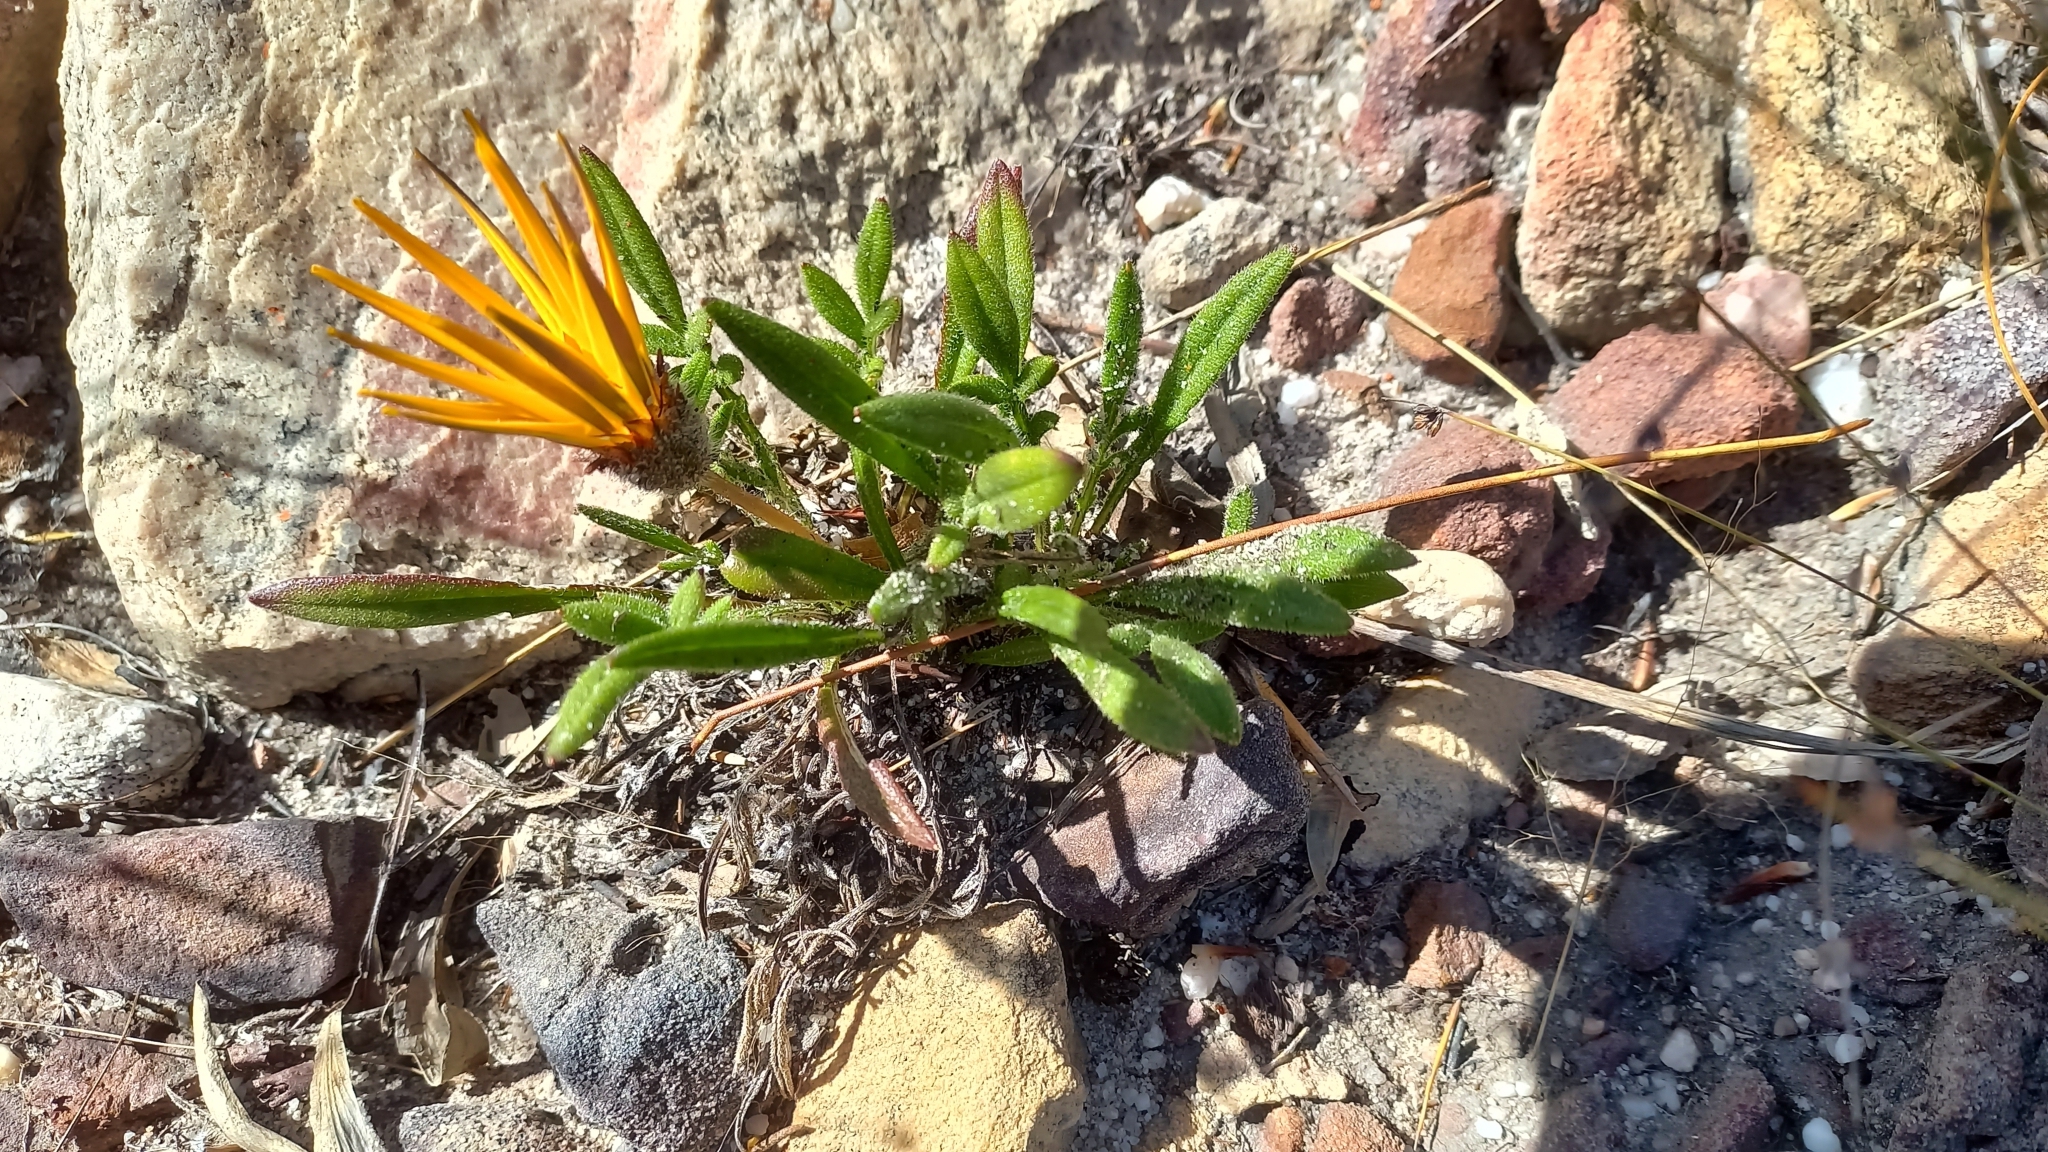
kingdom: Plantae
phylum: Tracheophyta
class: Magnoliopsida
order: Asterales
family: Asteraceae
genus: Gazania
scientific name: Gazania serrata
